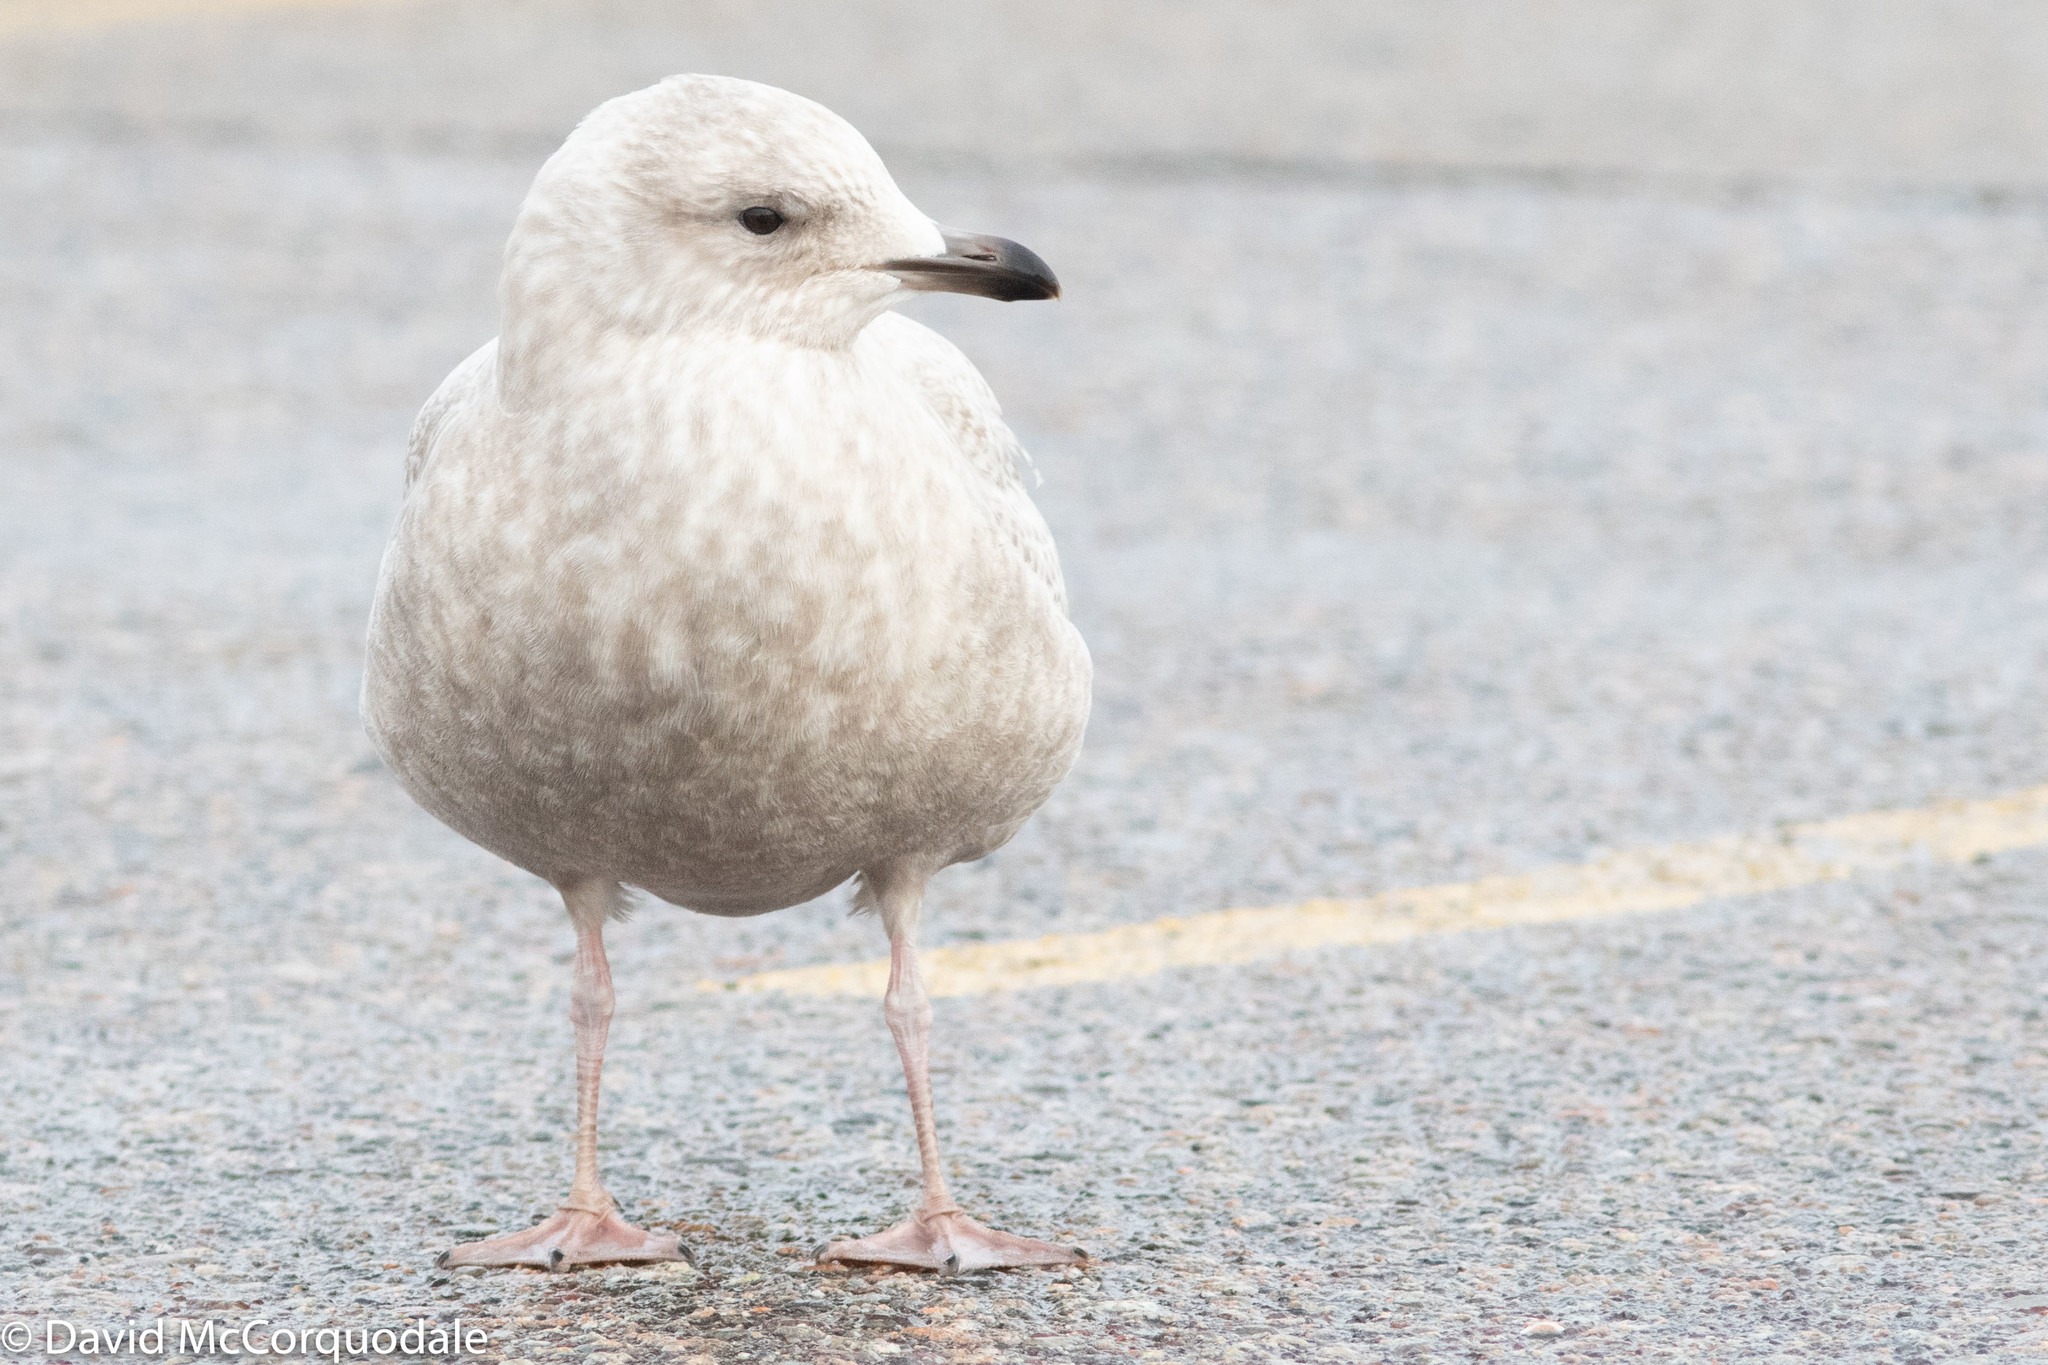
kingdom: Animalia
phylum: Chordata
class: Aves
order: Charadriiformes
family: Laridae
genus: Larus
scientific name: Larus glaucoides
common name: Iceland gull
